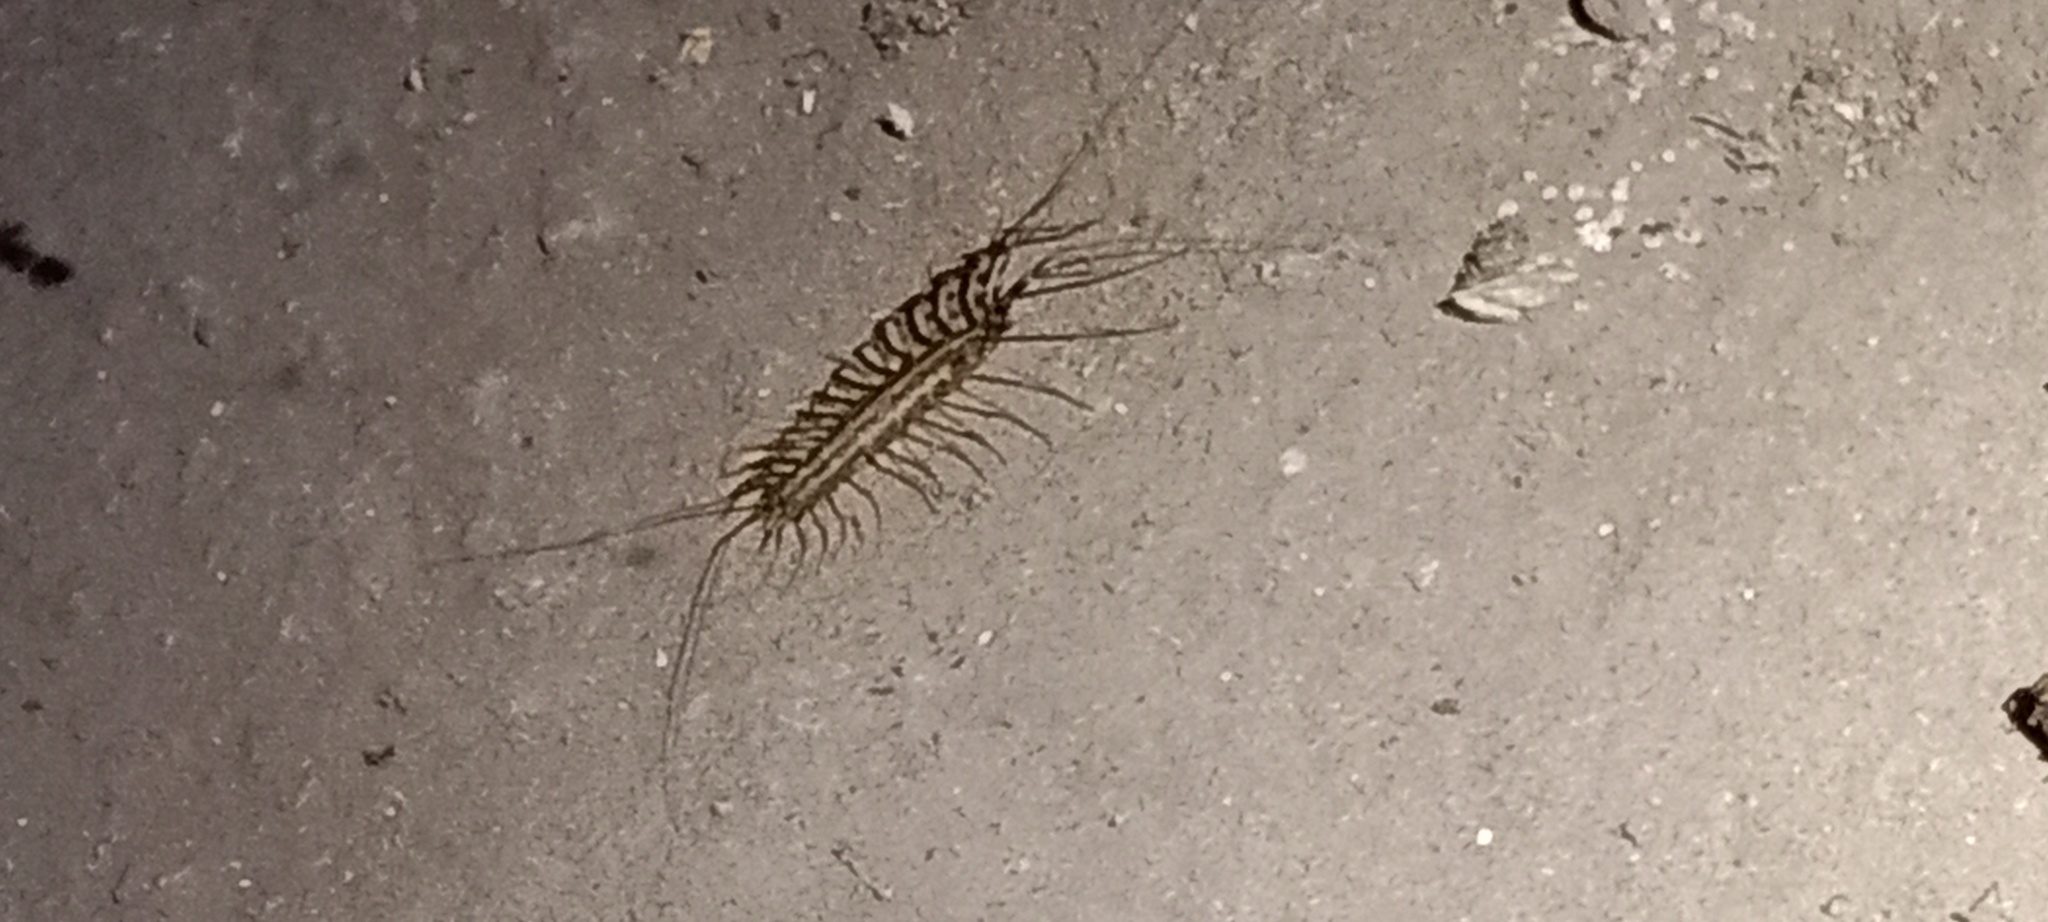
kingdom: Animalia
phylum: Arthropoda
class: Chilopoda
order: Scutigeromorpha
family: Scutigeridae
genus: Scutigera
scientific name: Scutigera coleoptrata
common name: House centipede
